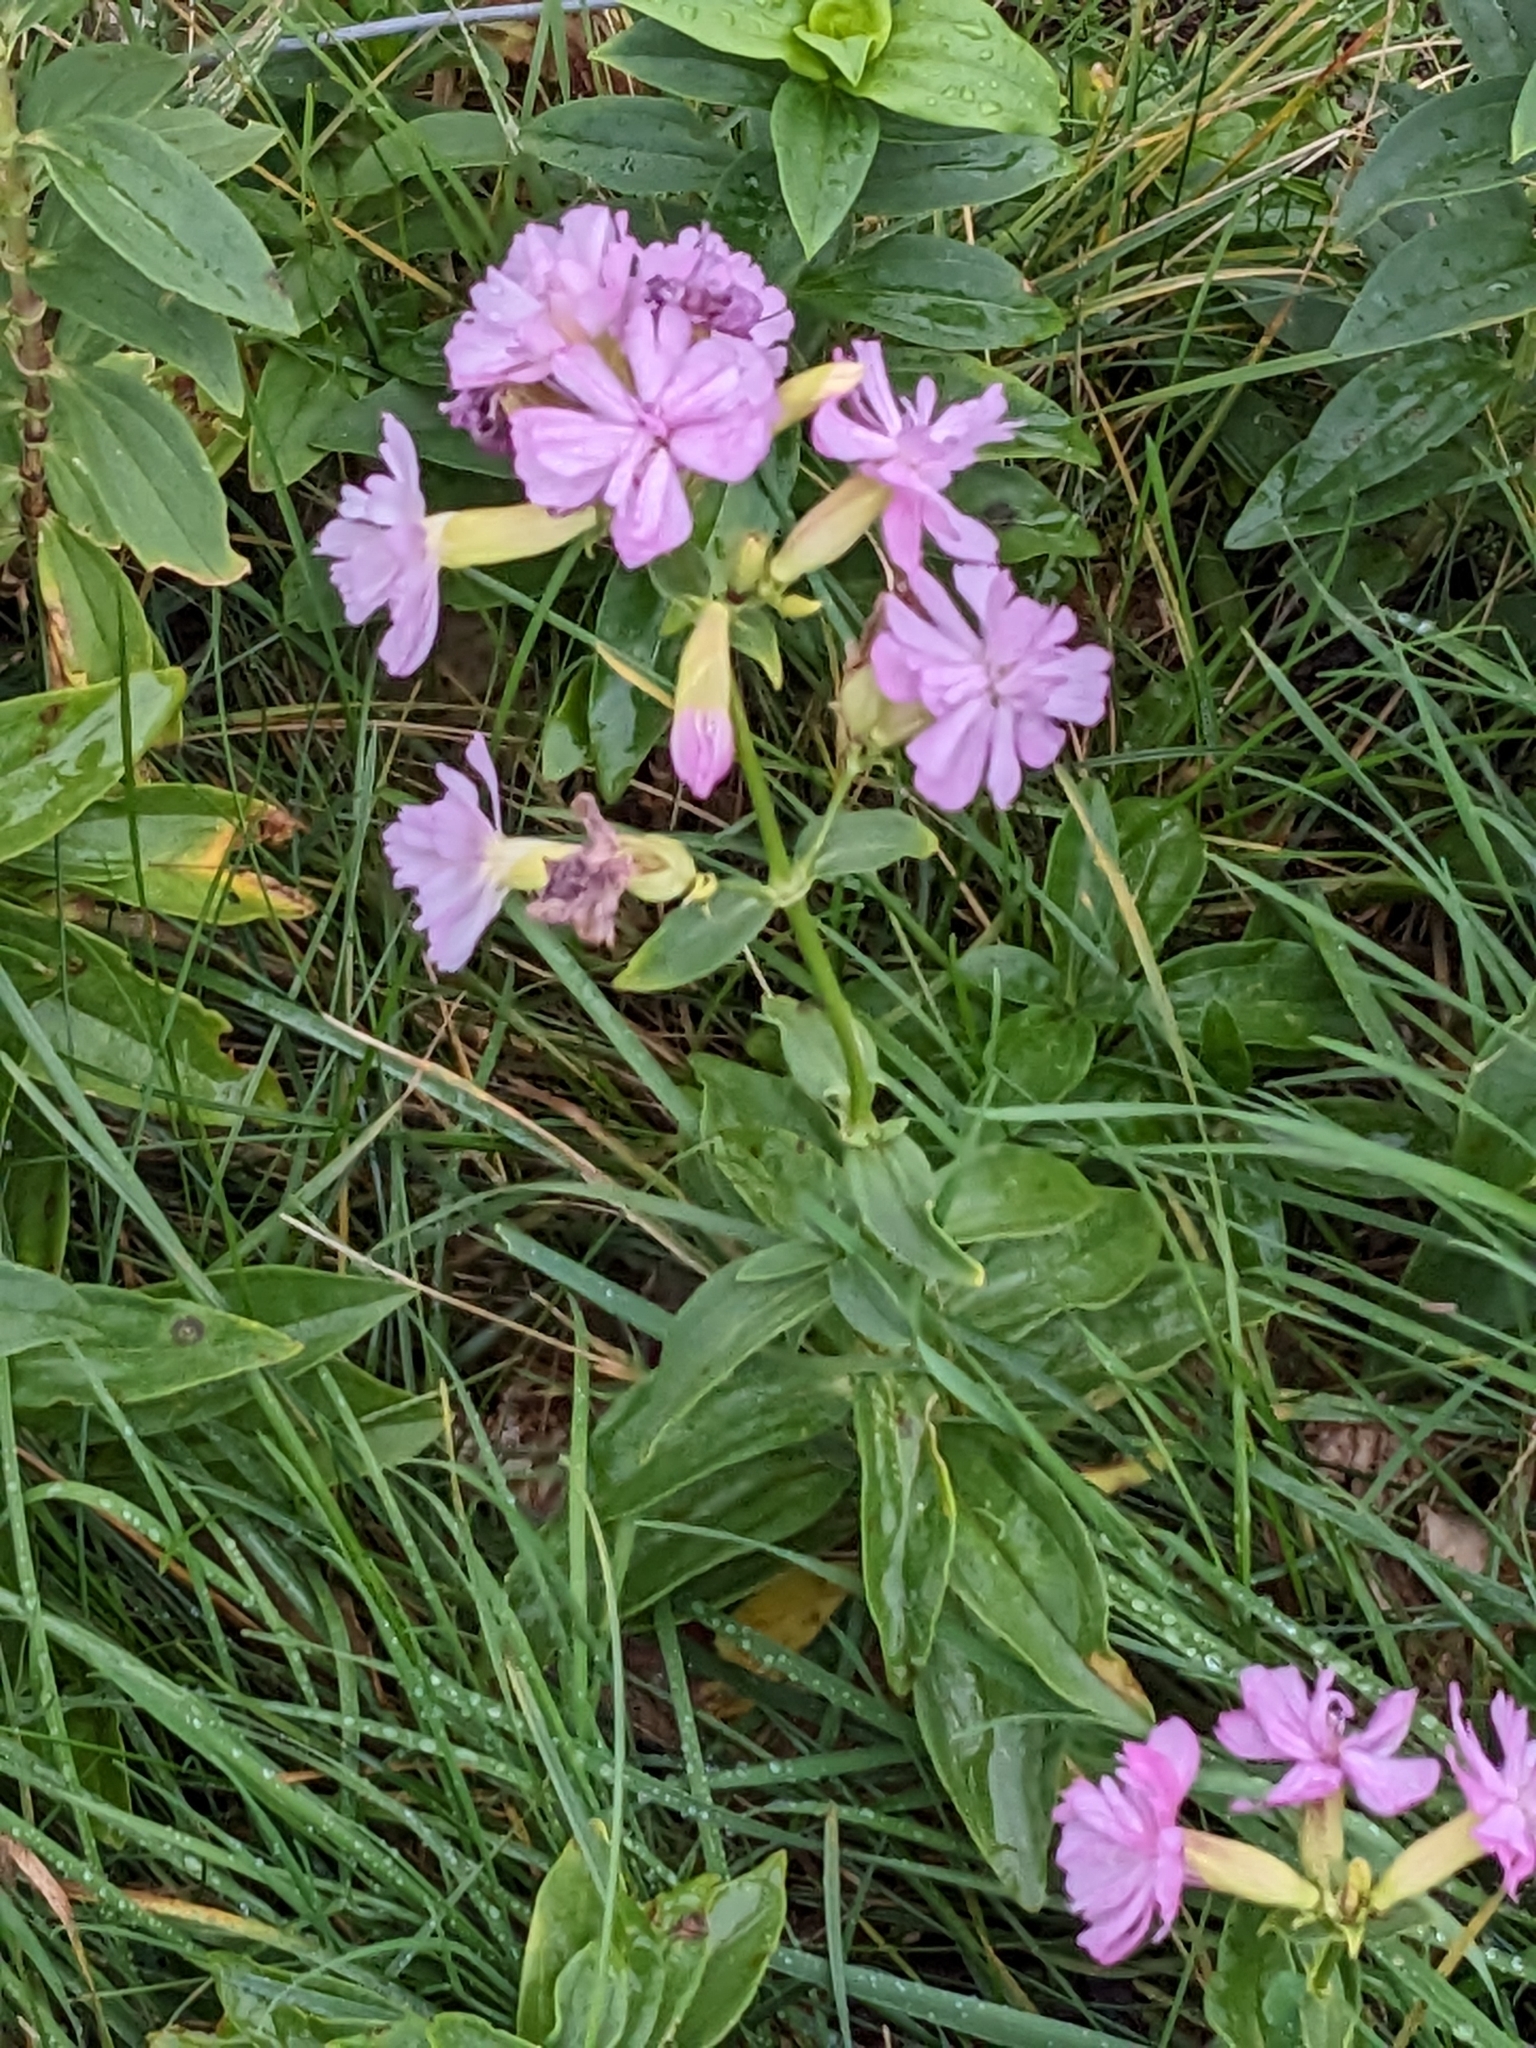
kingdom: Plantae
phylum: Tracheophyta
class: Magnoliopsida
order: Caryophyllales
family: Caryophyllaceae
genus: Saponaria
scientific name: Saponaria officinalis
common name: Soapwort
